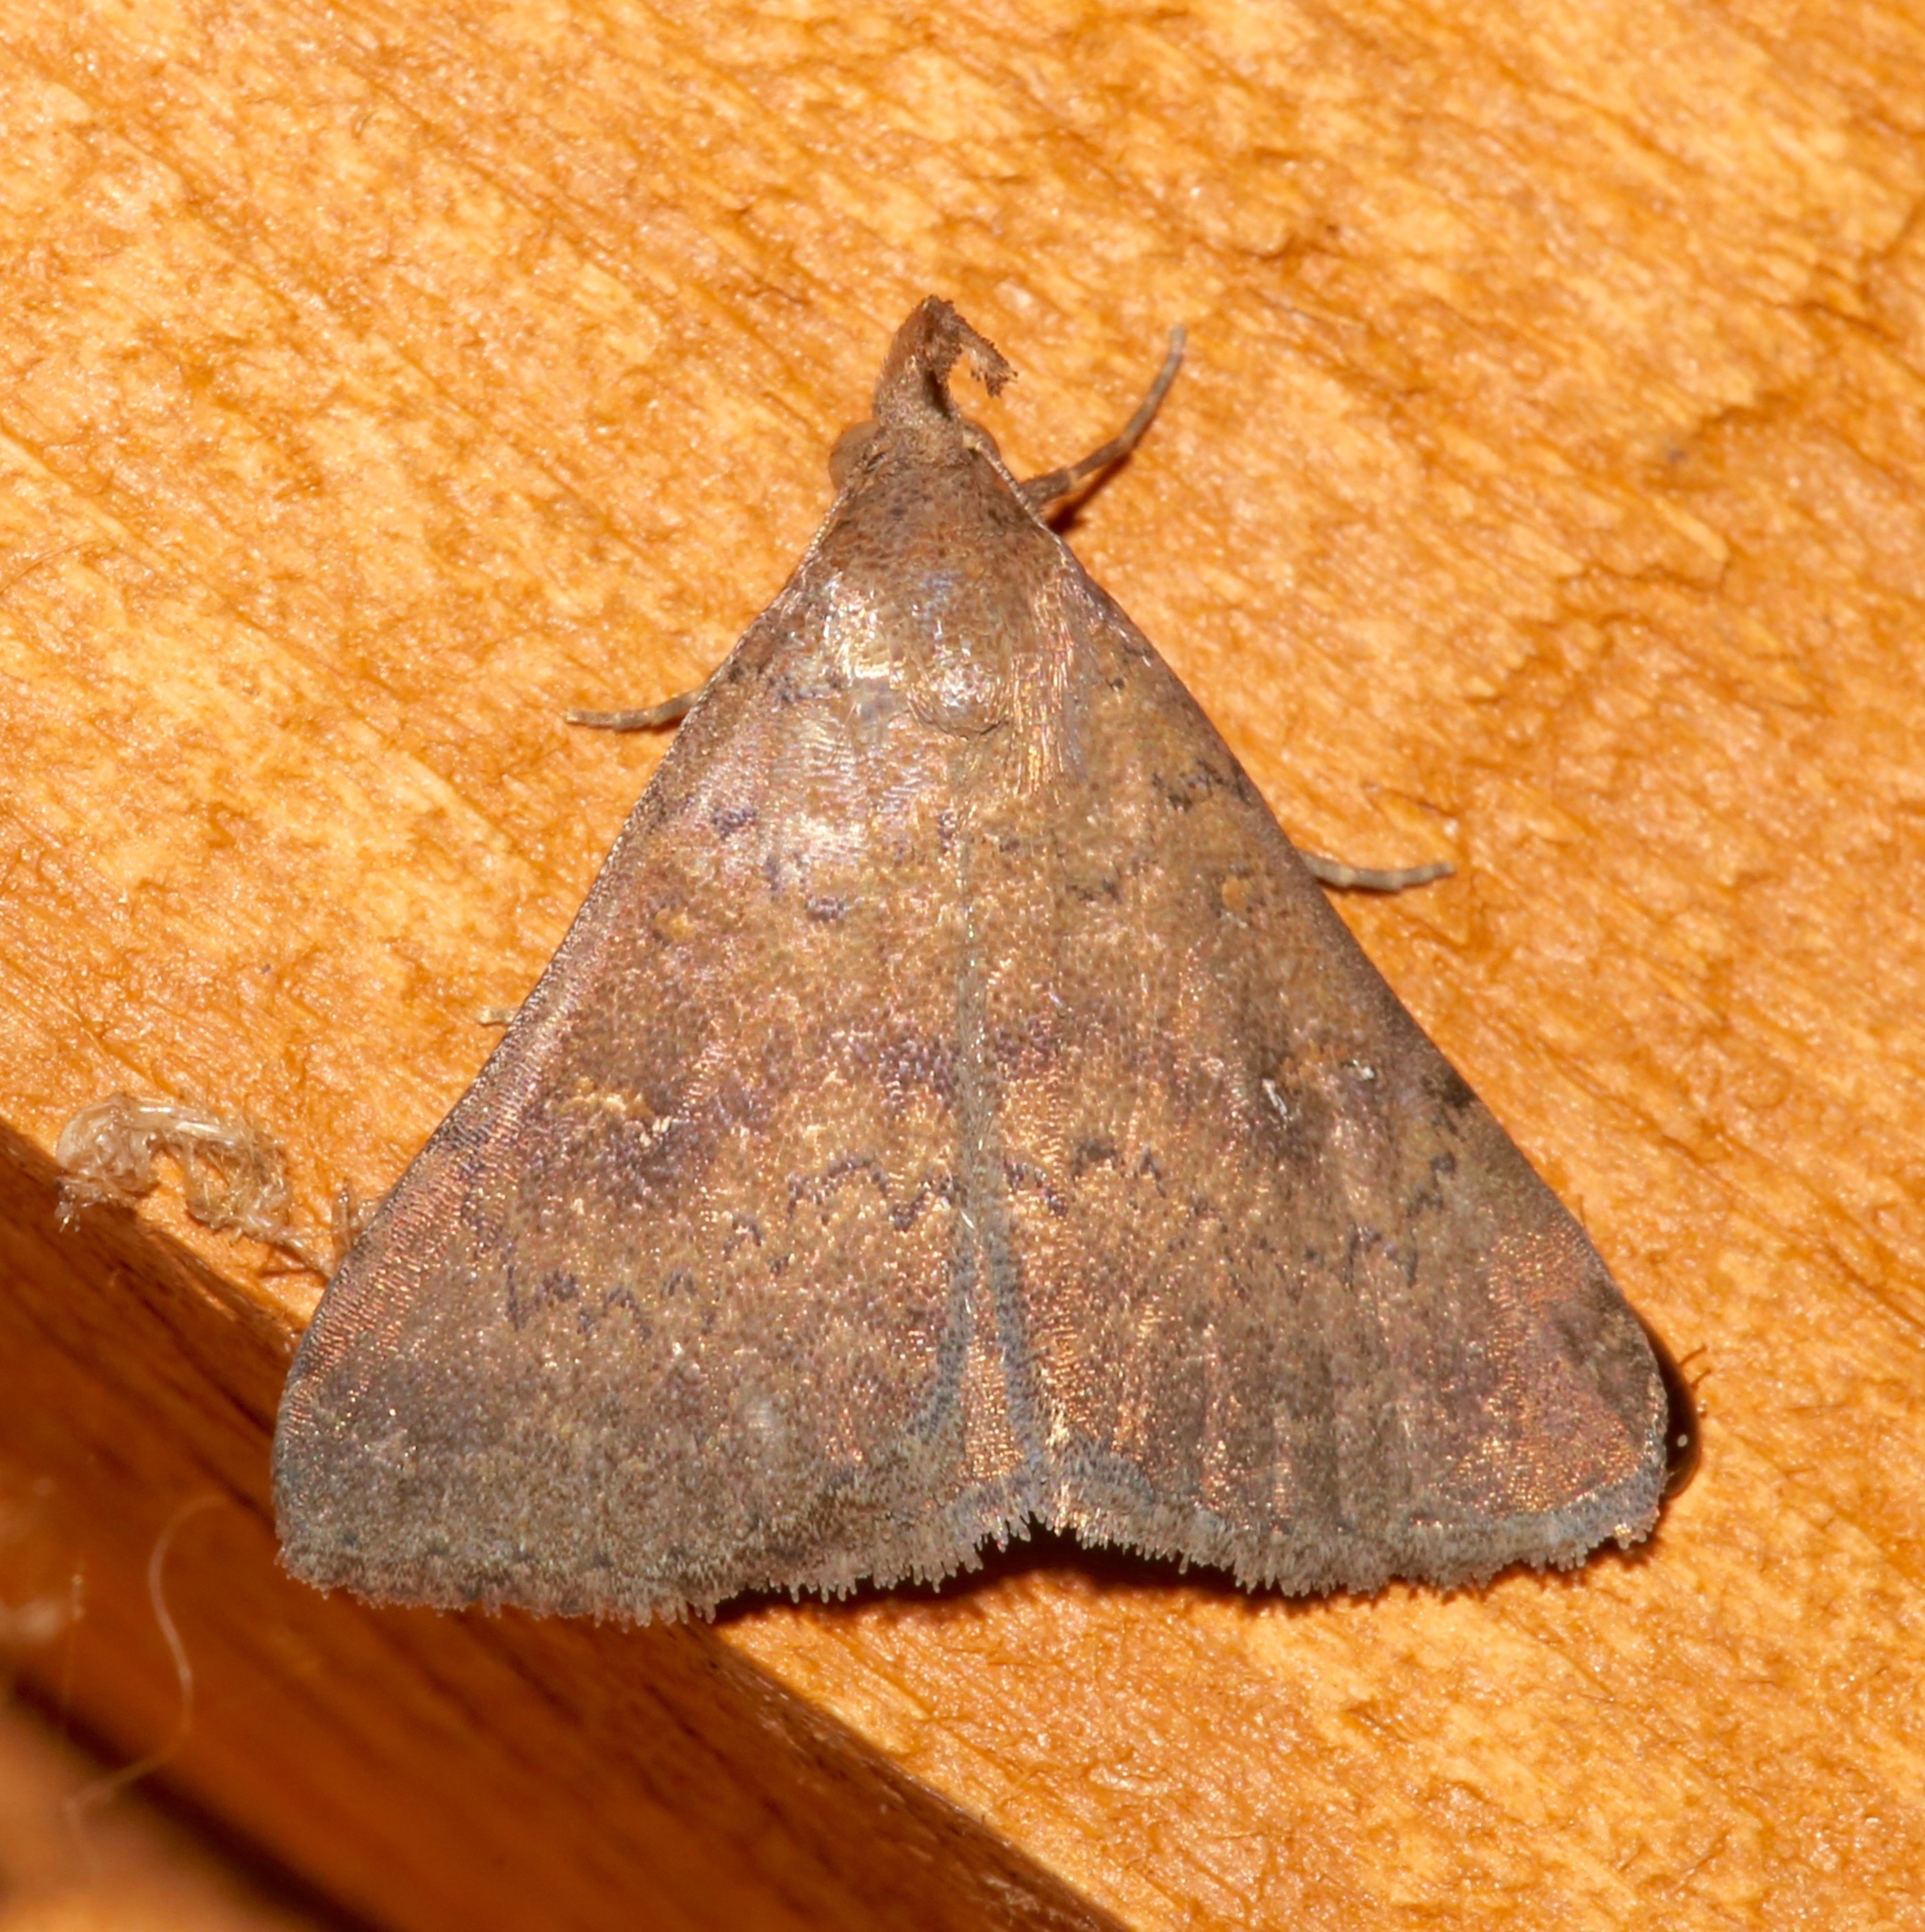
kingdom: Animalia
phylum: Arthropoda
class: Insecta
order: Lepidoptera
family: Erebidae
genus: Hypenula
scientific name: Hypenula cacuminalis
